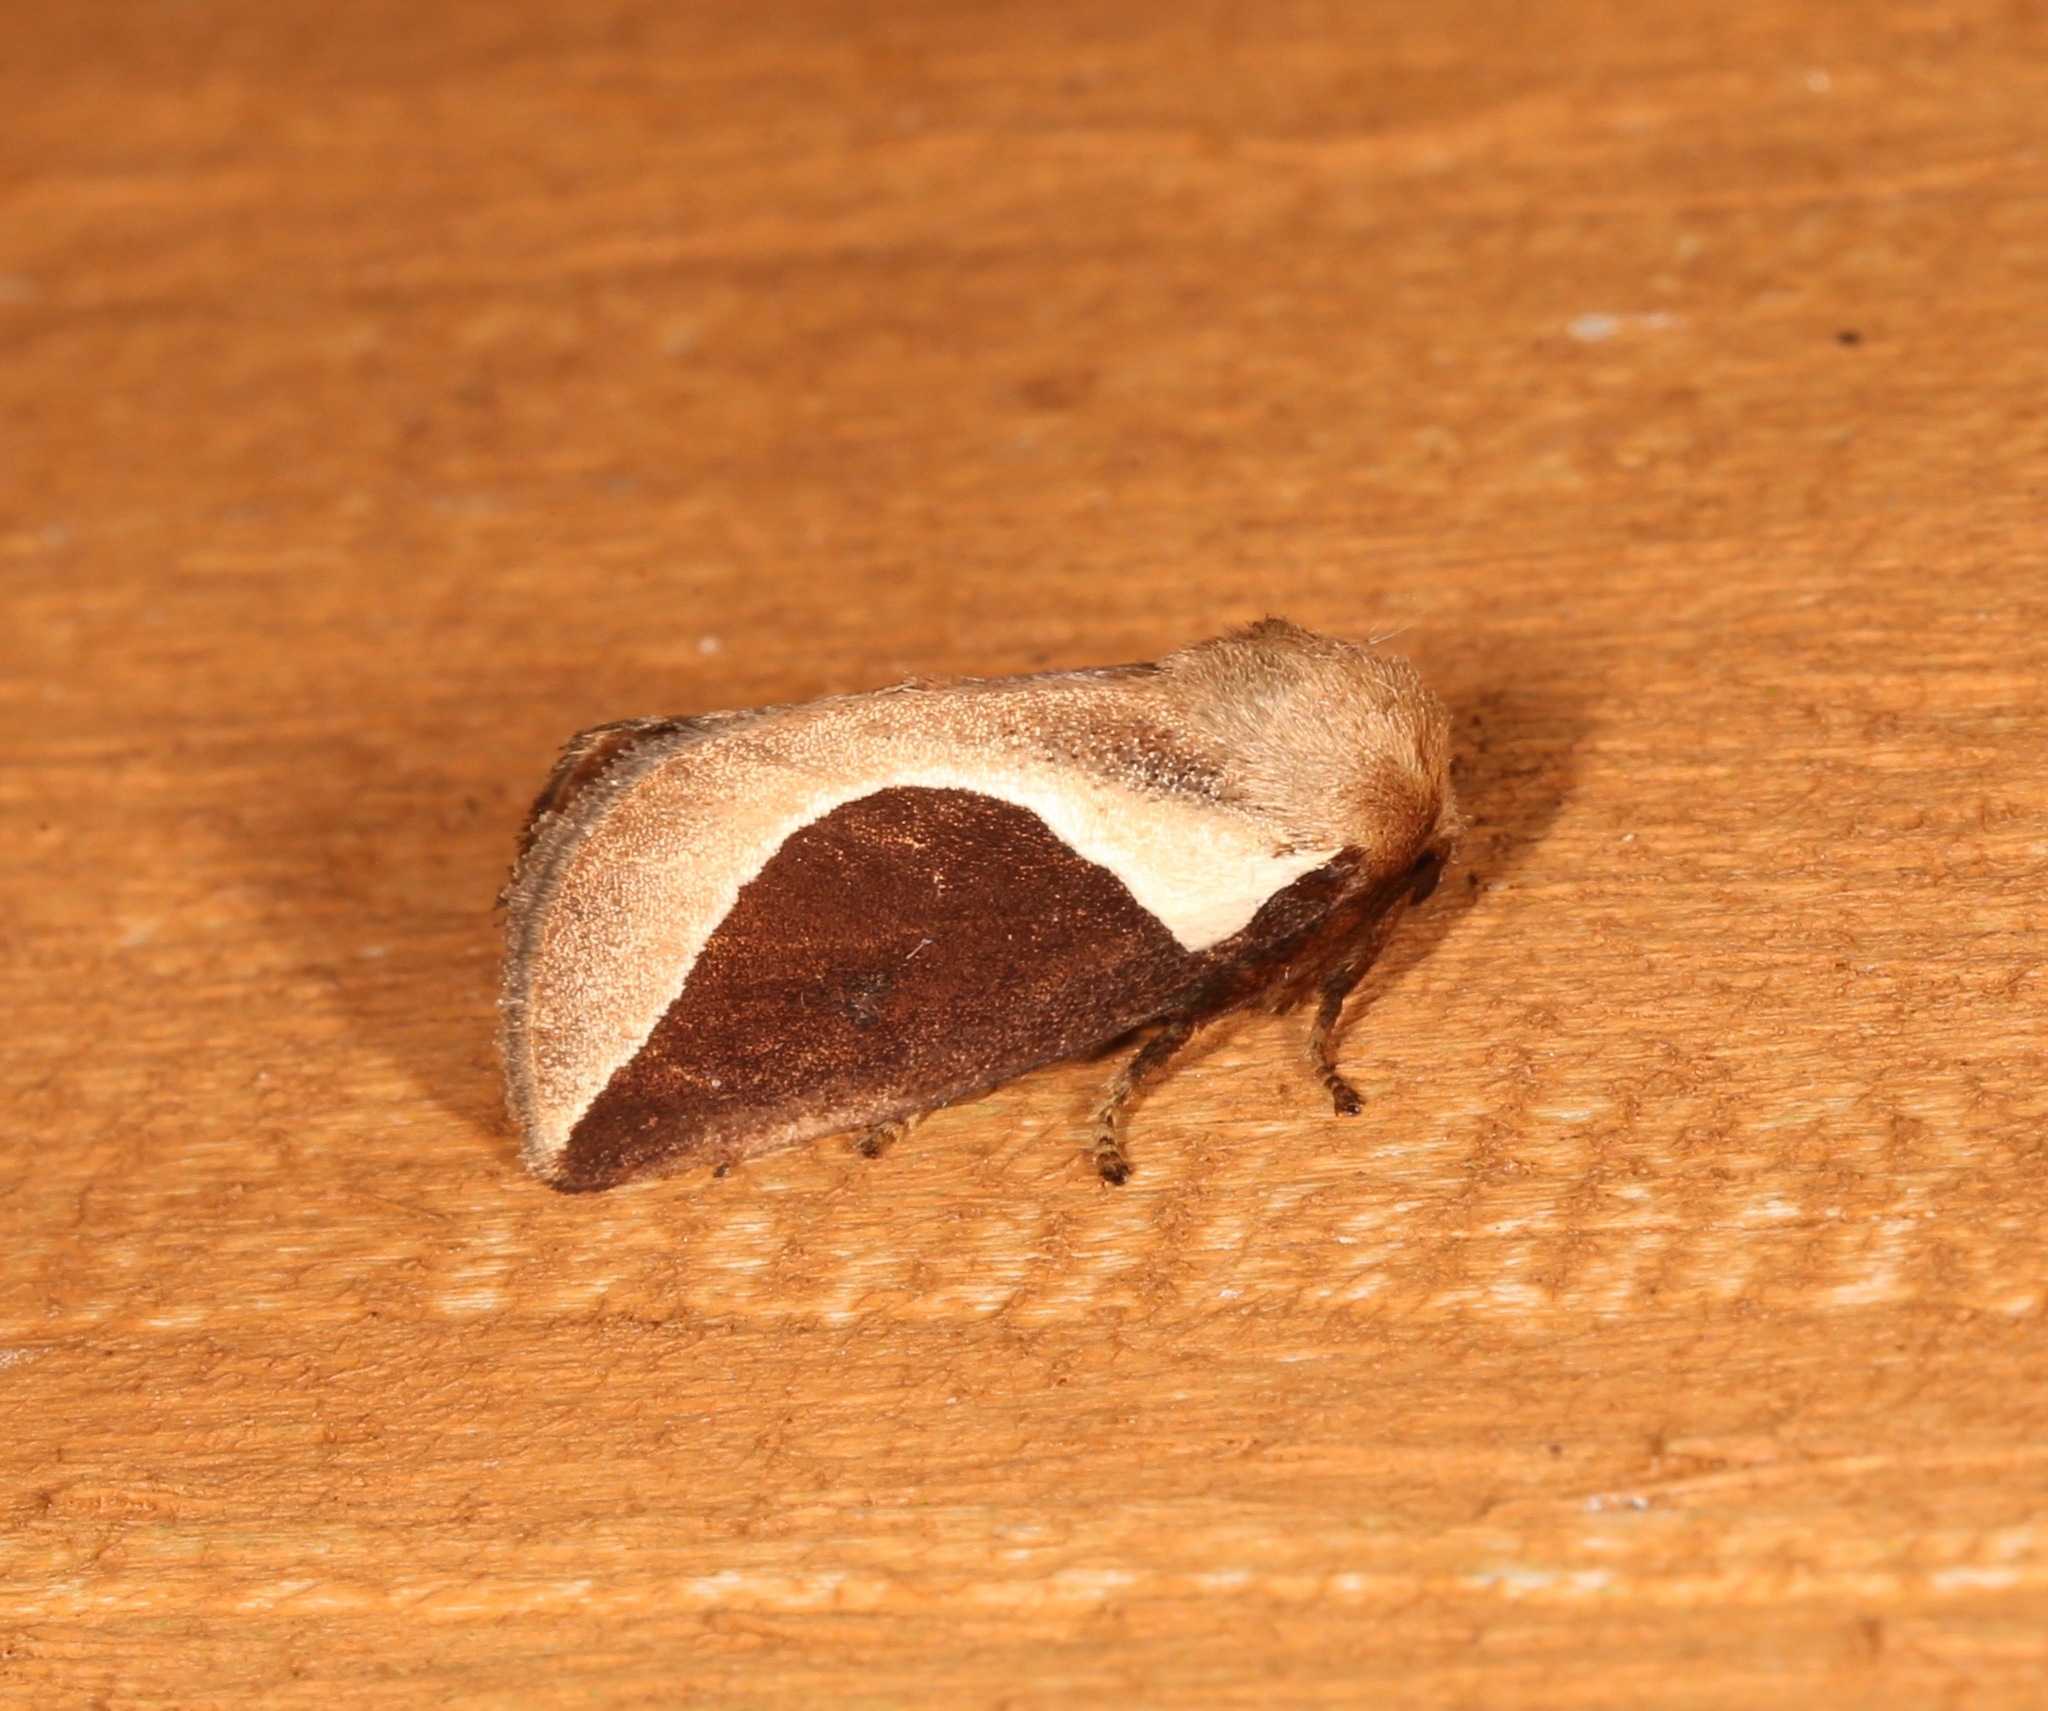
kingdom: Animalia
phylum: Arthropoda
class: Insecta
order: Lepidoptera
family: Limacodidae
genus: Prolimacodes
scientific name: Prolimacodes badia
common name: Skiff moth
